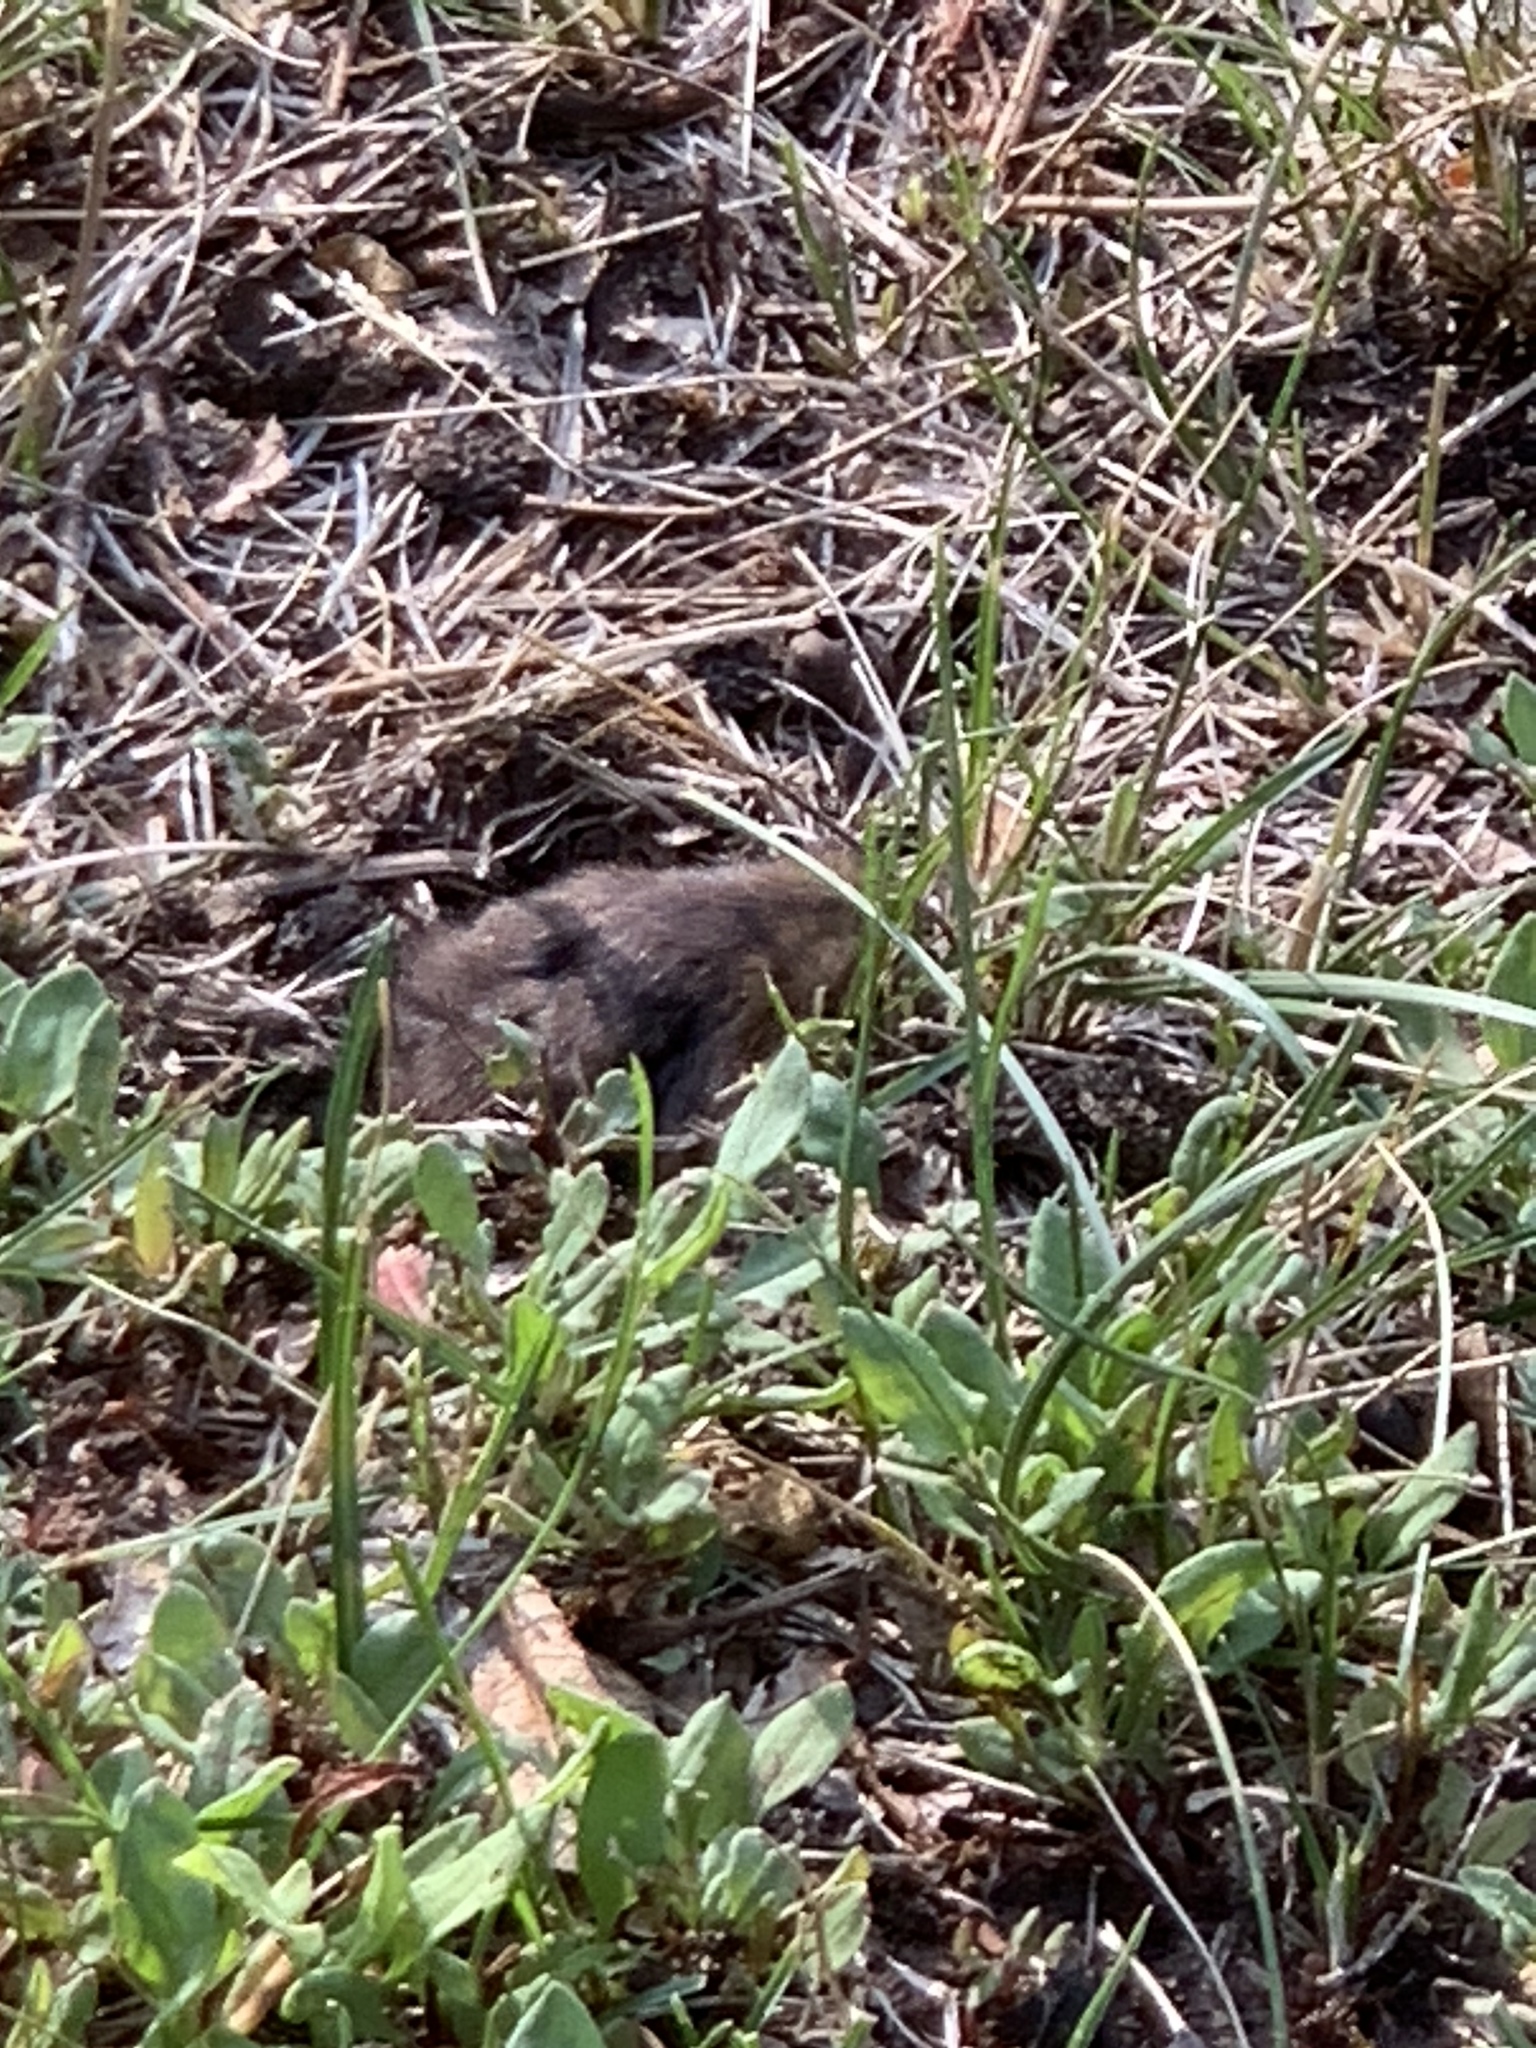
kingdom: Animalia
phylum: Chordata
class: Mammalia
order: Rodentia
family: Geomyidae
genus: Thomomys
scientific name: Thomomys bottae
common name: Botta's pocket gopher
